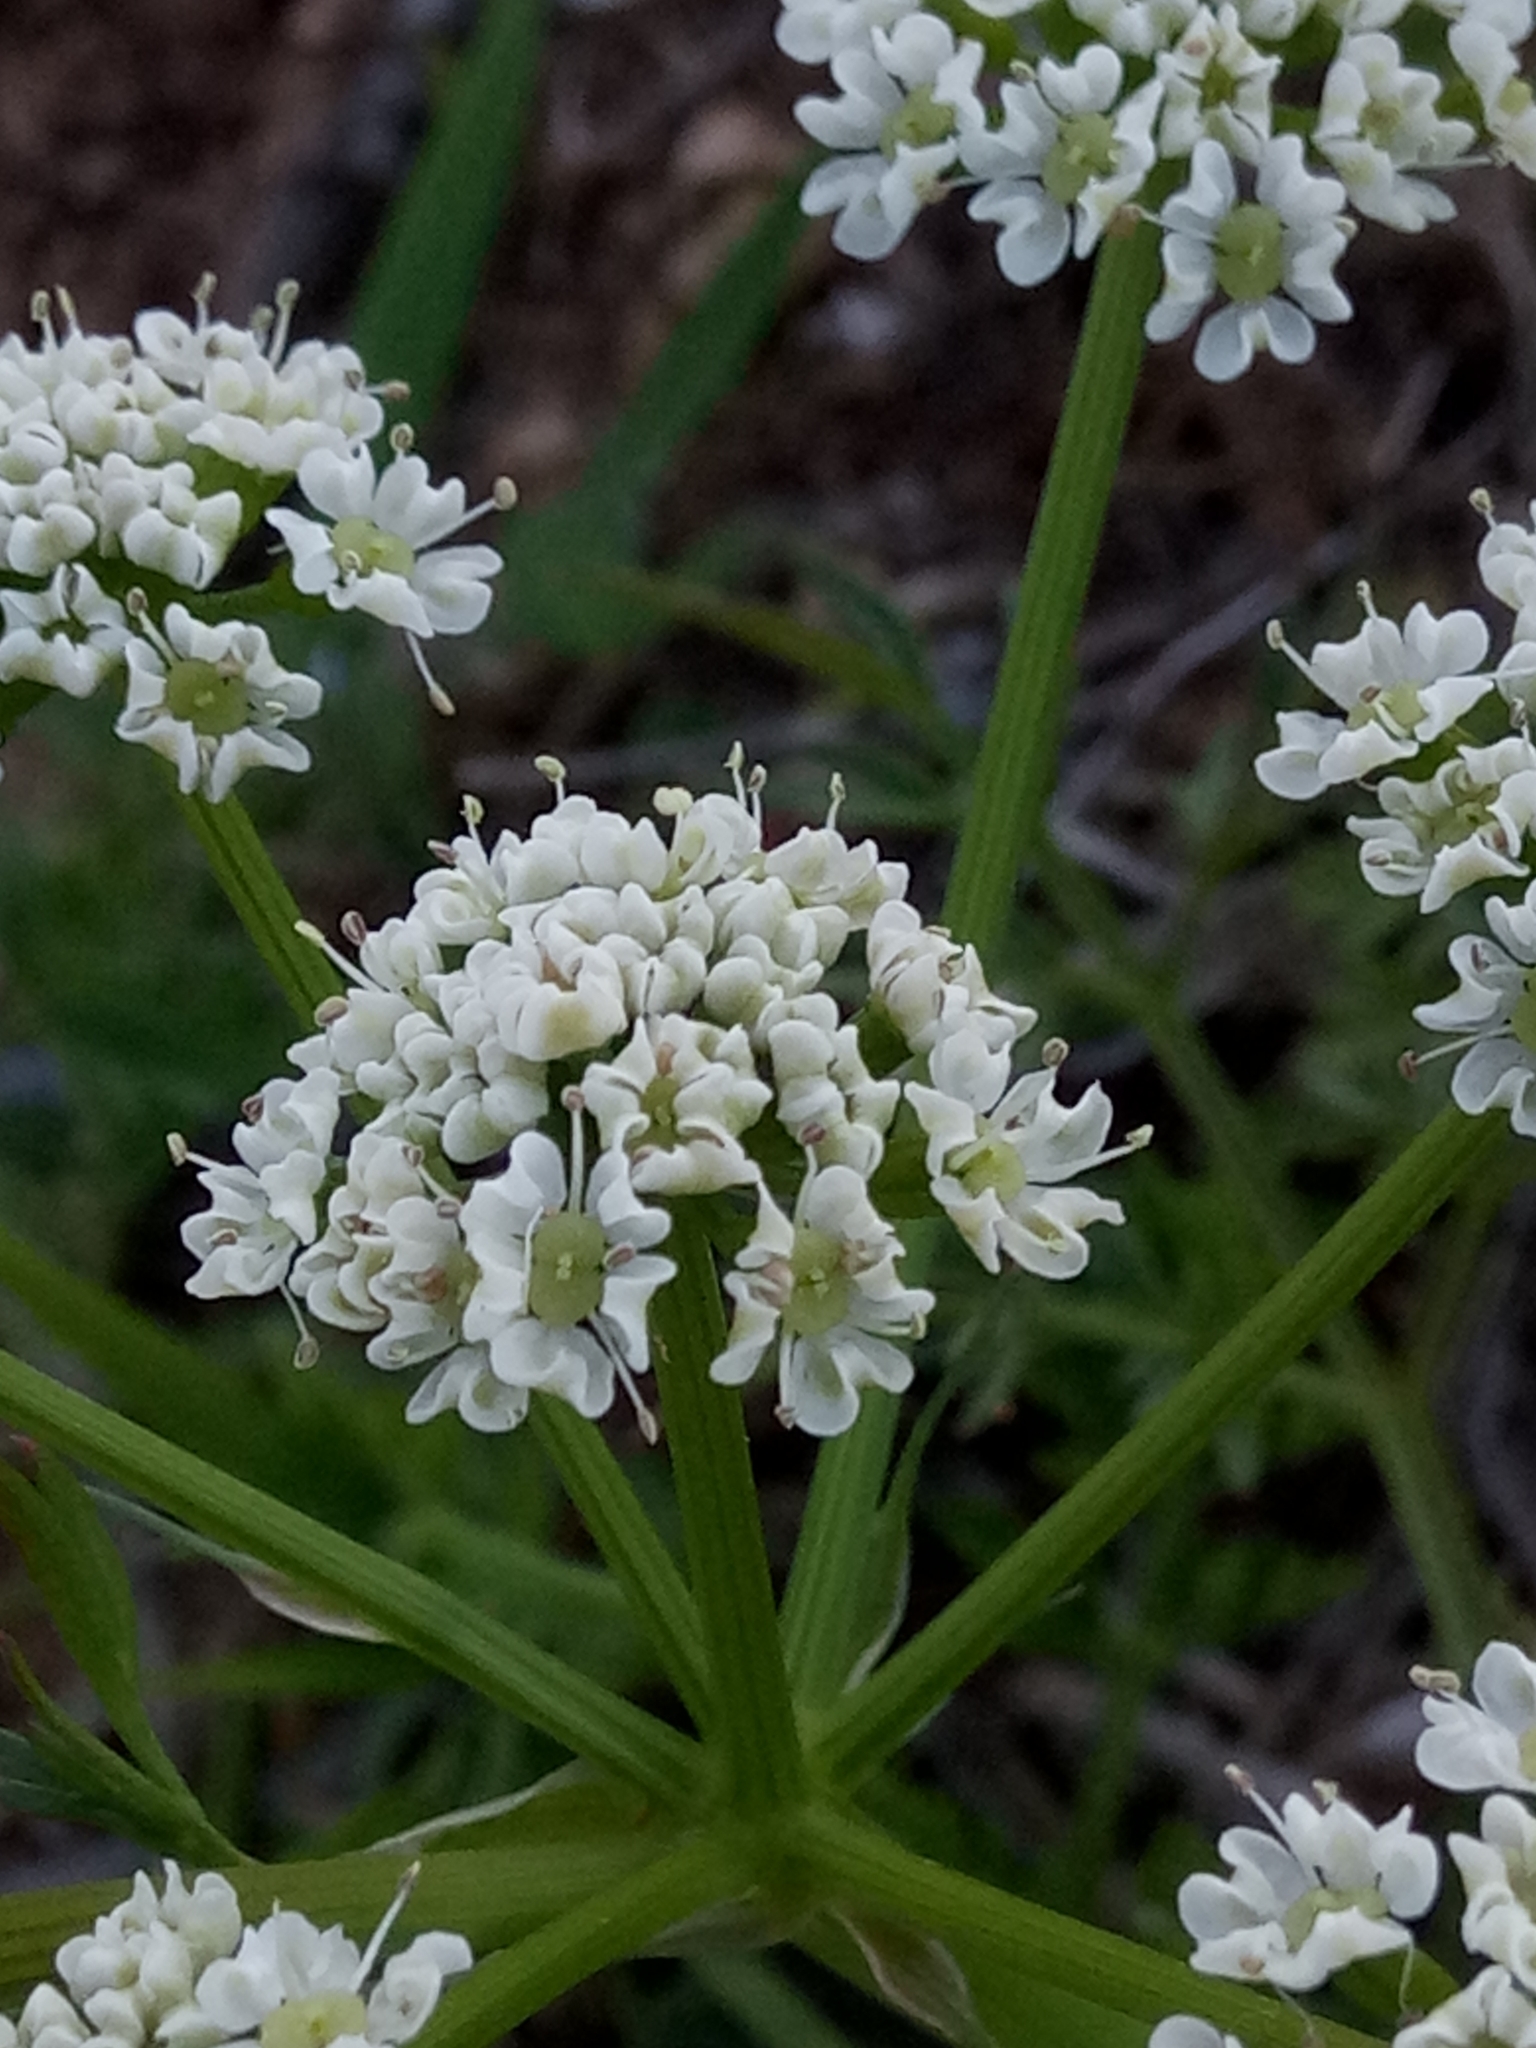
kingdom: Plantae
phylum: Tracheophyta
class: Magnoliopsida
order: Apiales
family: Apiaceae
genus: Bunium
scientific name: Bunium pachypodum
